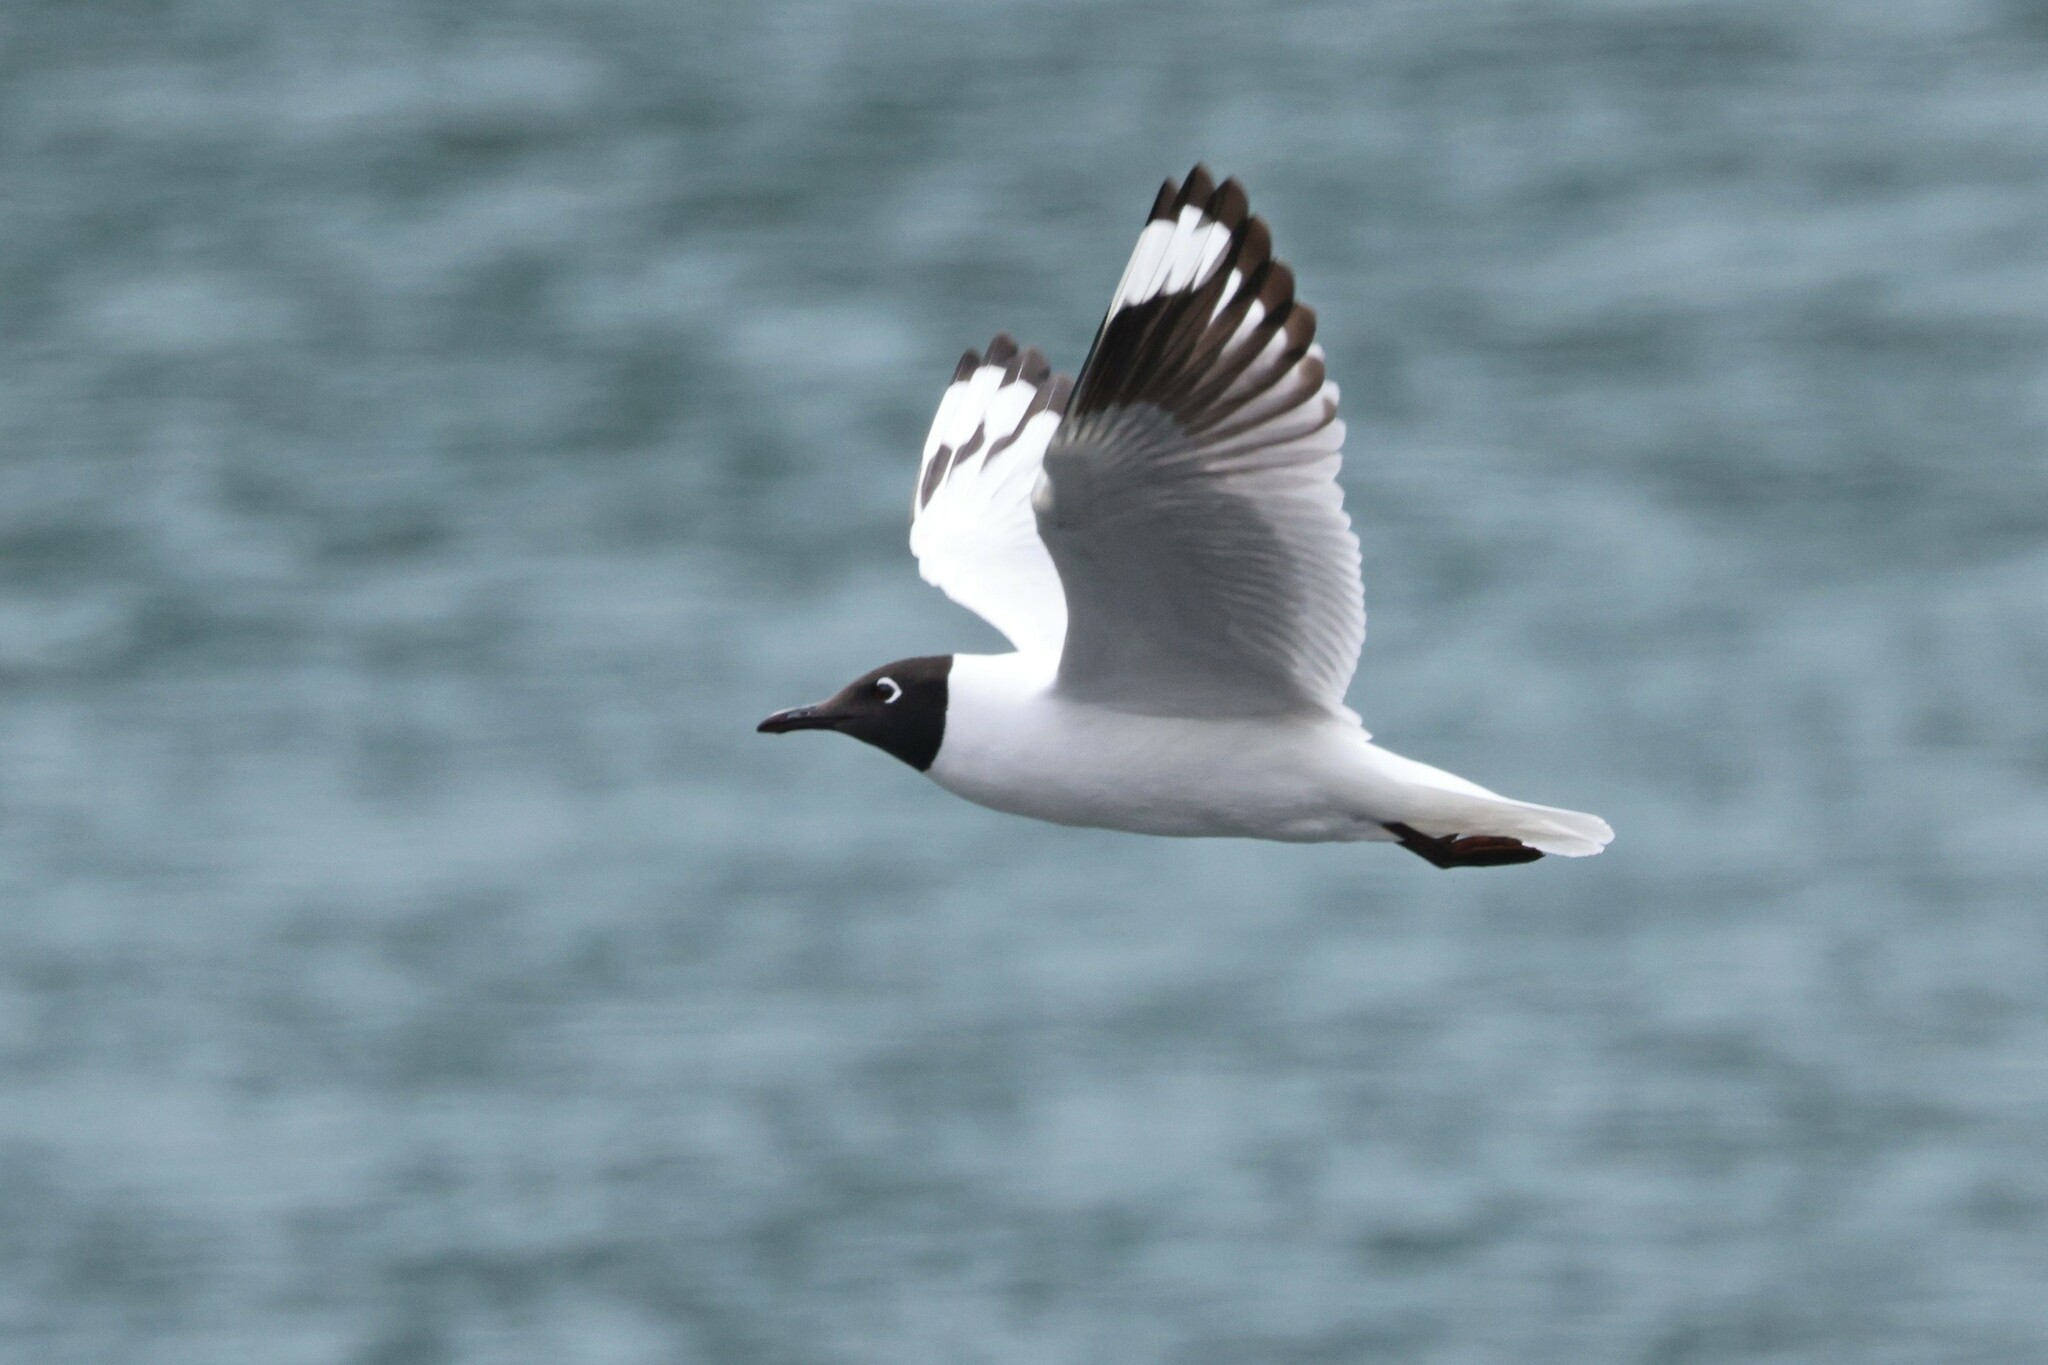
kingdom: Animalia
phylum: Chordata
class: Aves
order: Charadriiformes
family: Laridae
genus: Chroicocephalus
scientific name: Chroicocephalus serranus
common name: Andean gull
